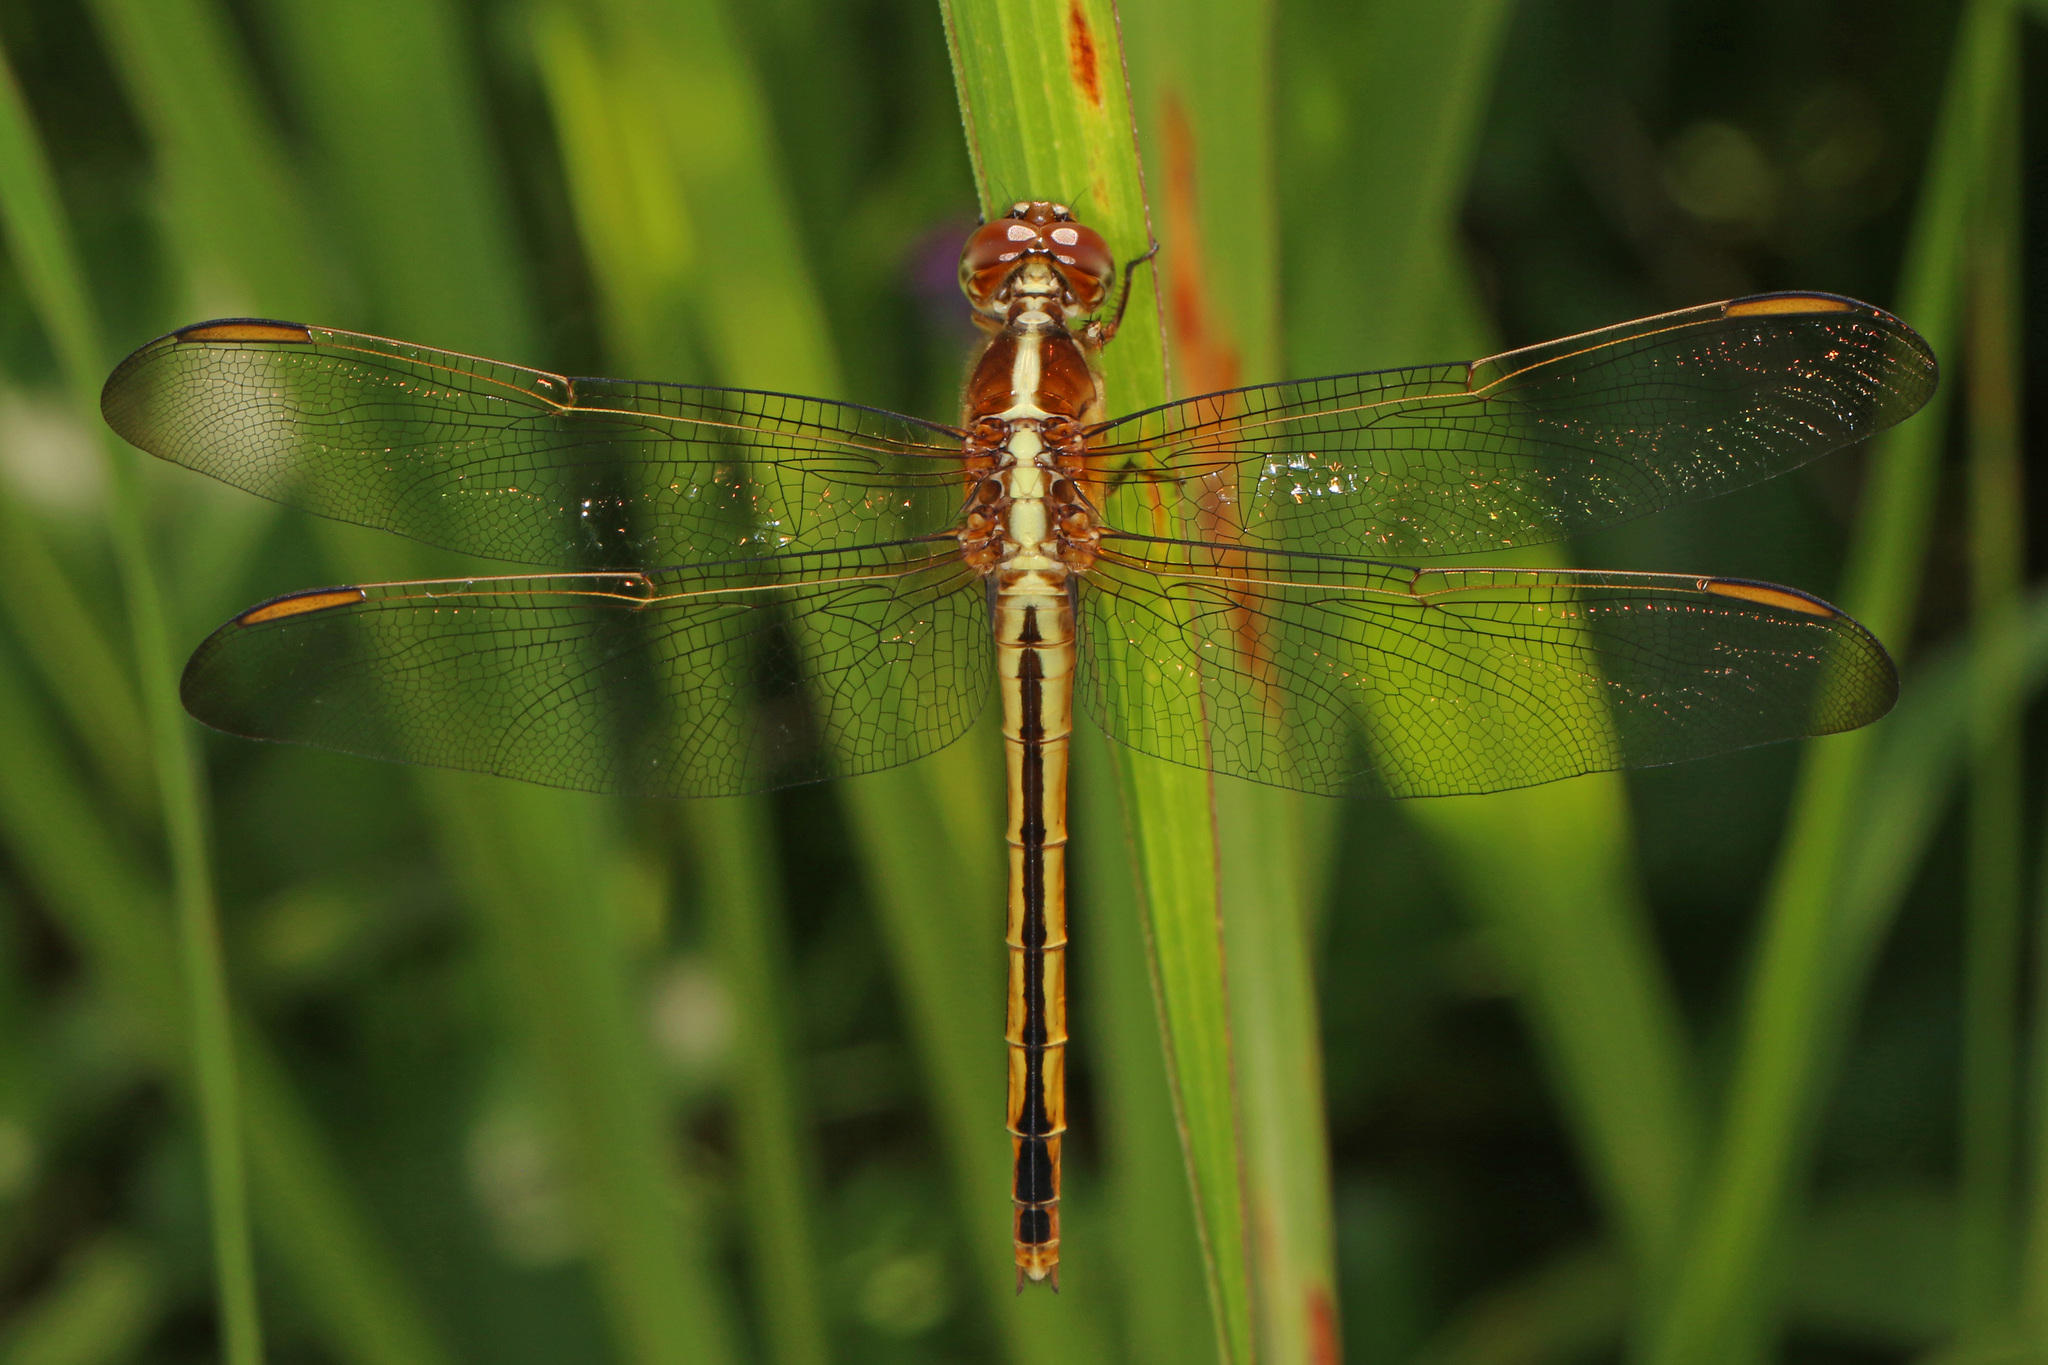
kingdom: Animalia
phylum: Arthropoda
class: Insecta
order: Odonata
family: Libellulidae
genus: Libellula
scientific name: Libellula needhami
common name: Needham's skimmer
